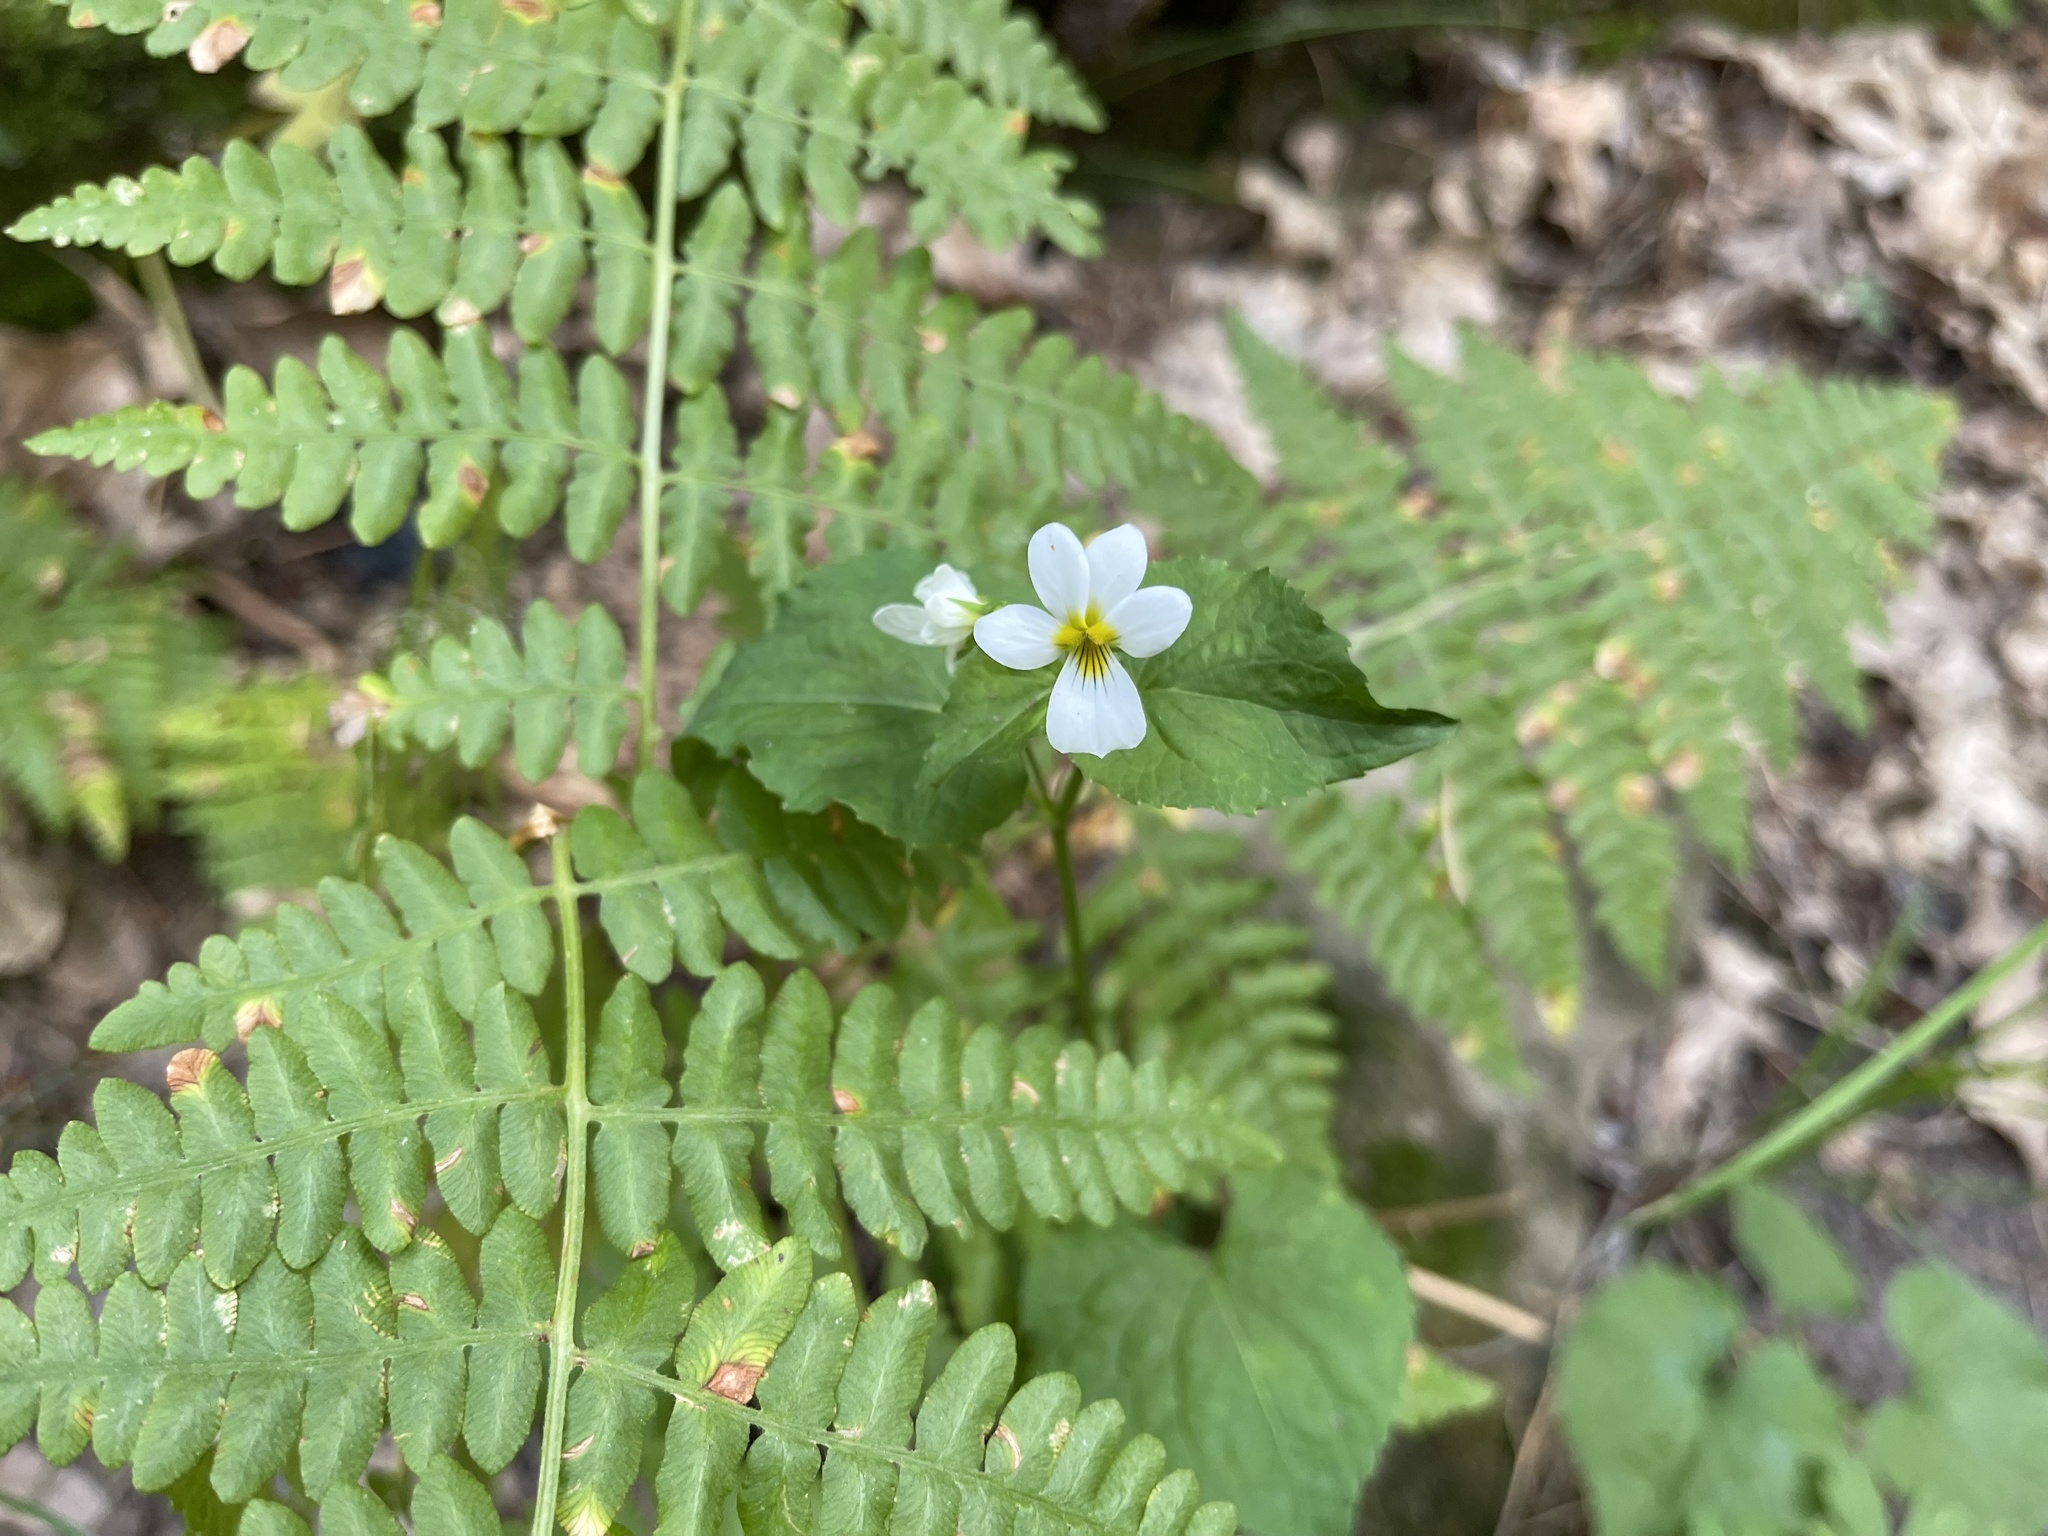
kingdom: Plantae
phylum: Tracheophyta
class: Magnoliopsida
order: Malpighiales
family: Violaceae
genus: Viola
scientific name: Viola canadensis
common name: Canada violet
